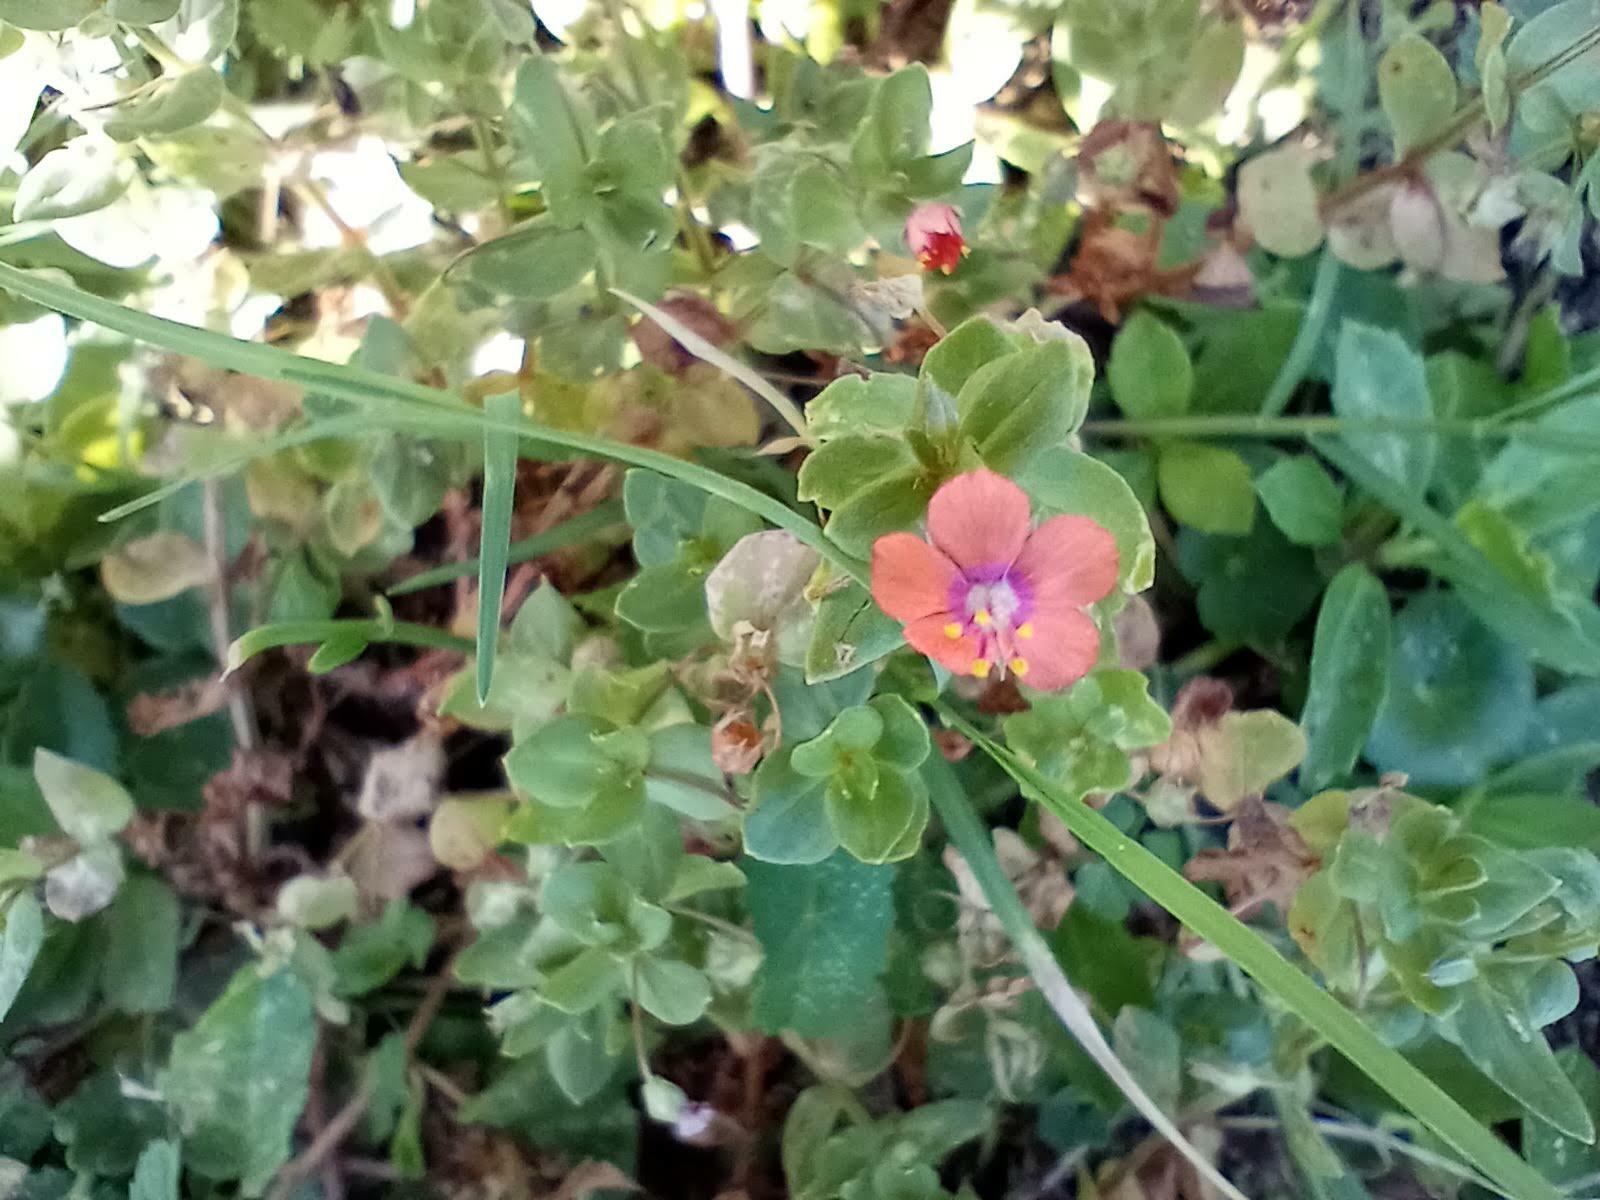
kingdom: Plantae
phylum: Tracheophyta
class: Magnoliopsida
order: Ericales
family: Primulaceae
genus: Lysimachia
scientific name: Lysimachia arvensis
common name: Scarlet pimpernel
